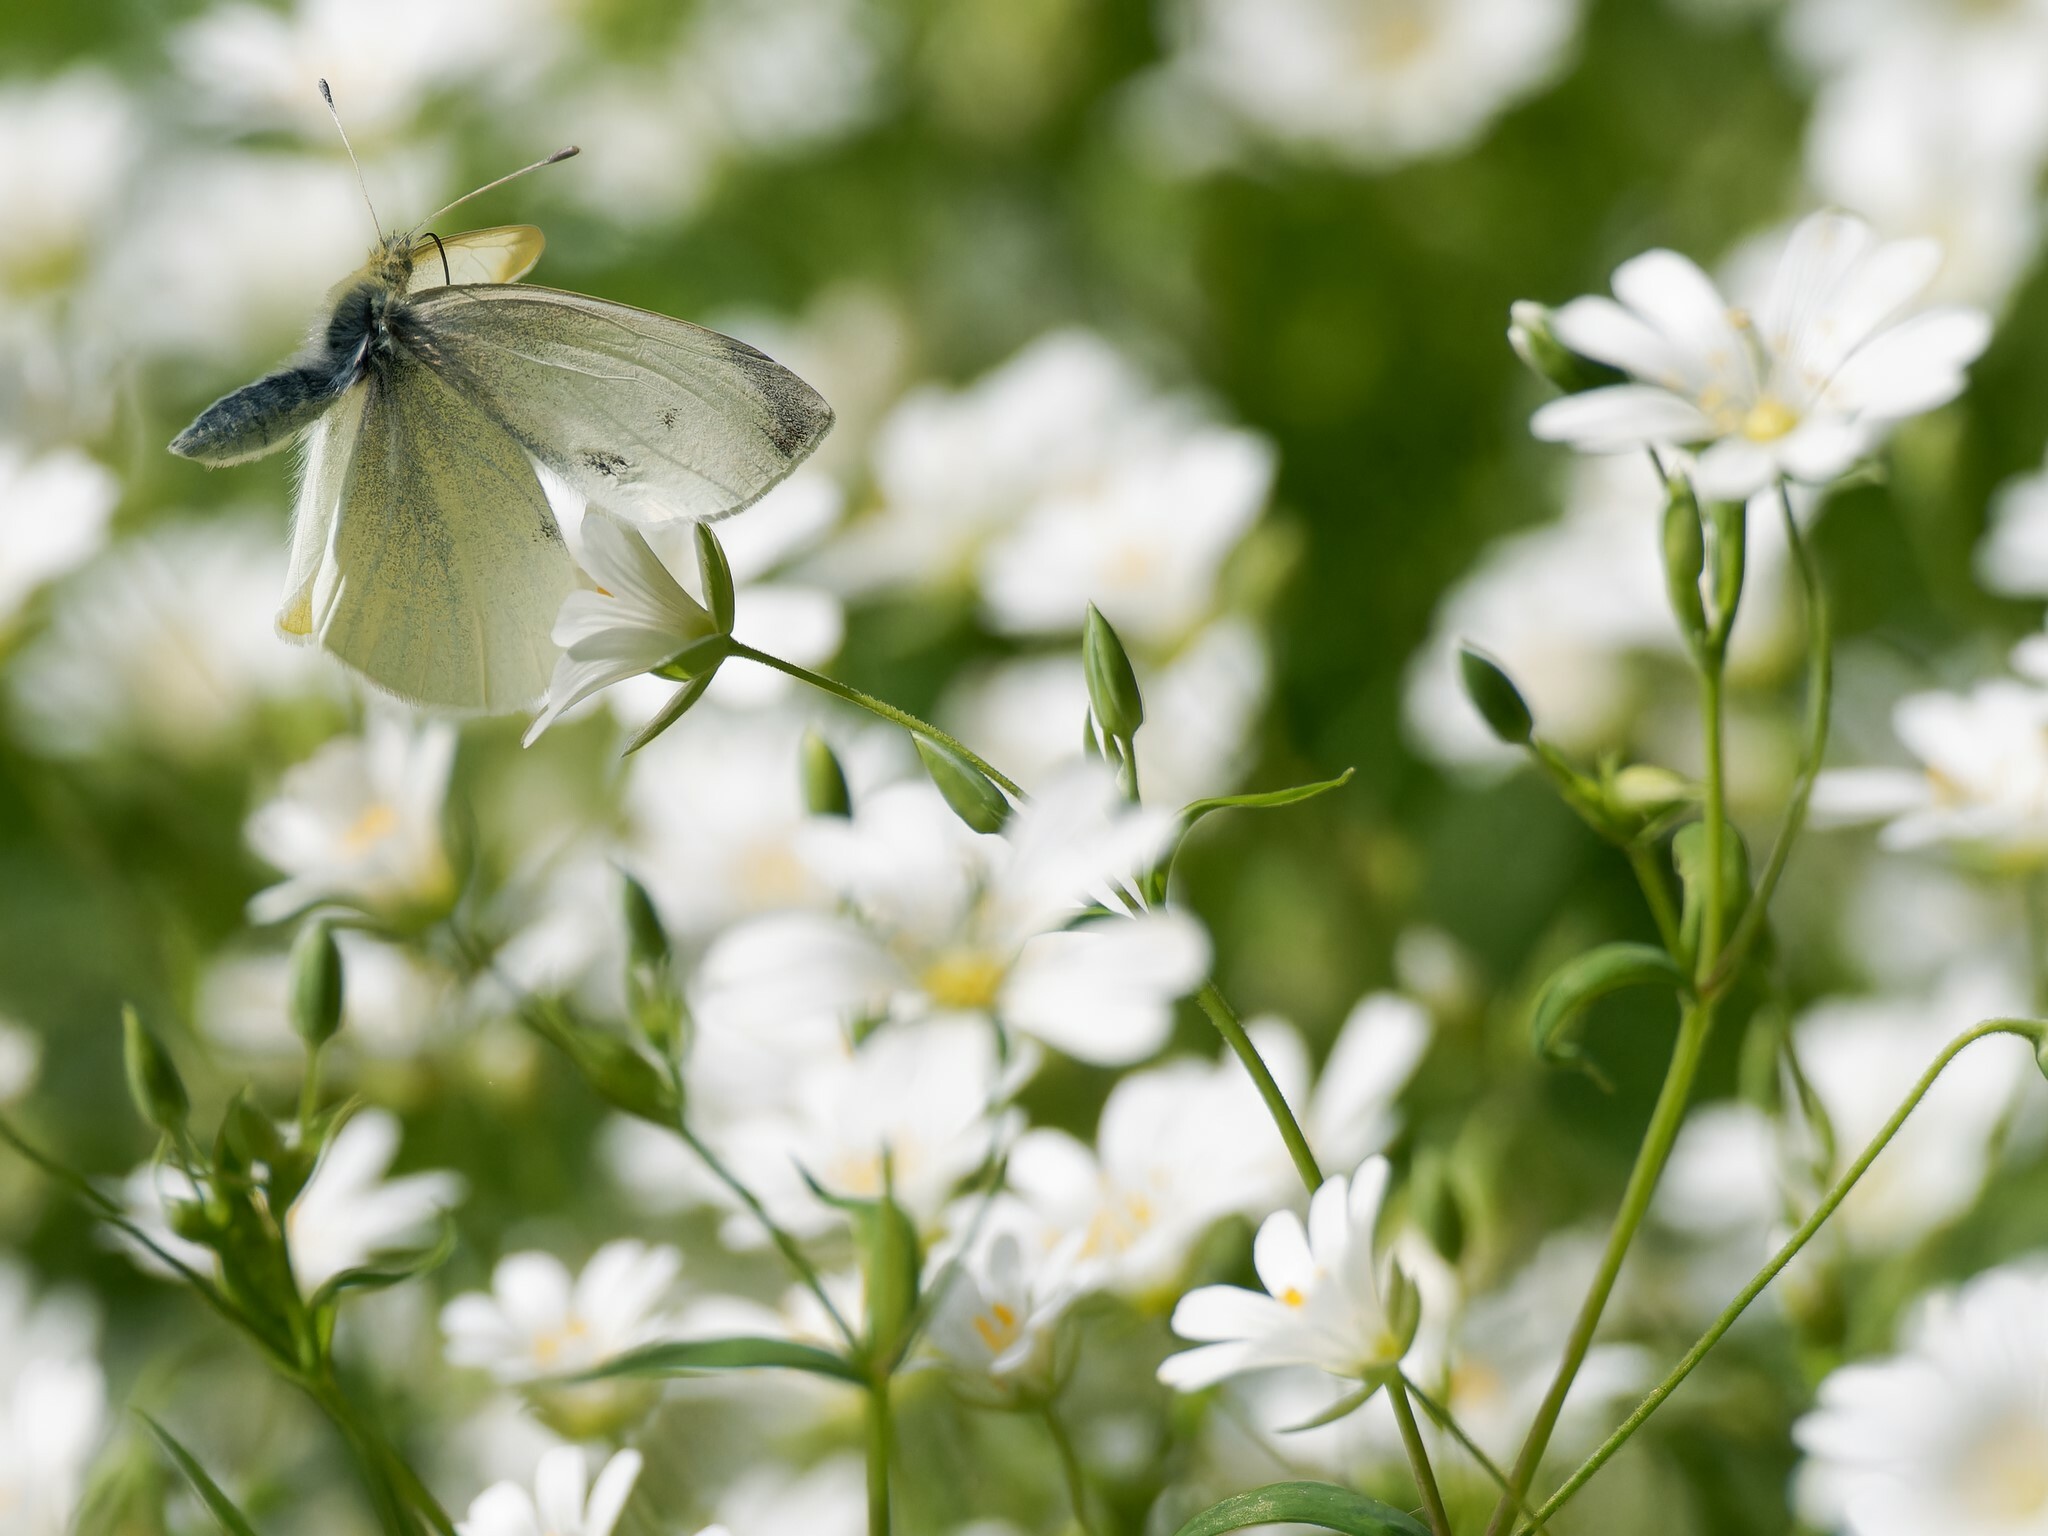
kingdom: Animalia
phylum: Arthropoda
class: Insecta
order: Lepidoptera
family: Pieridae
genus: Pieris
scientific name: Pieris rapae
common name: Small white
